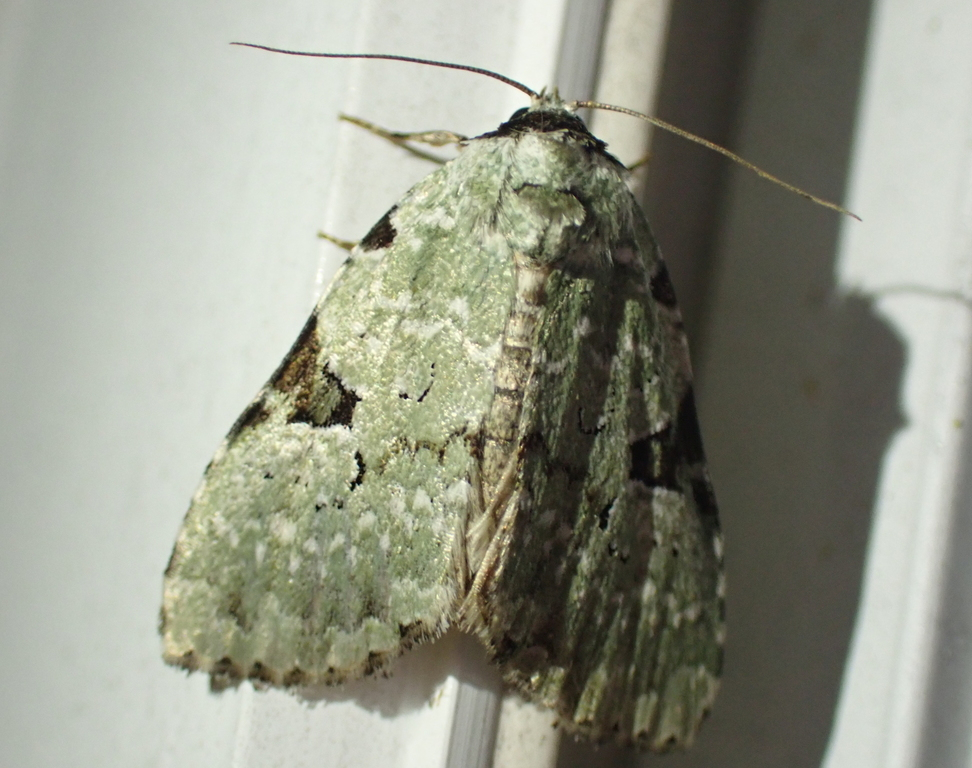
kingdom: Animalia
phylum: Arthropoda
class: Insecta
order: Lepidoptera
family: Noctuidae
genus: Leuconycta
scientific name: Leuconycta diphteroides
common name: Green leuconycta moth
